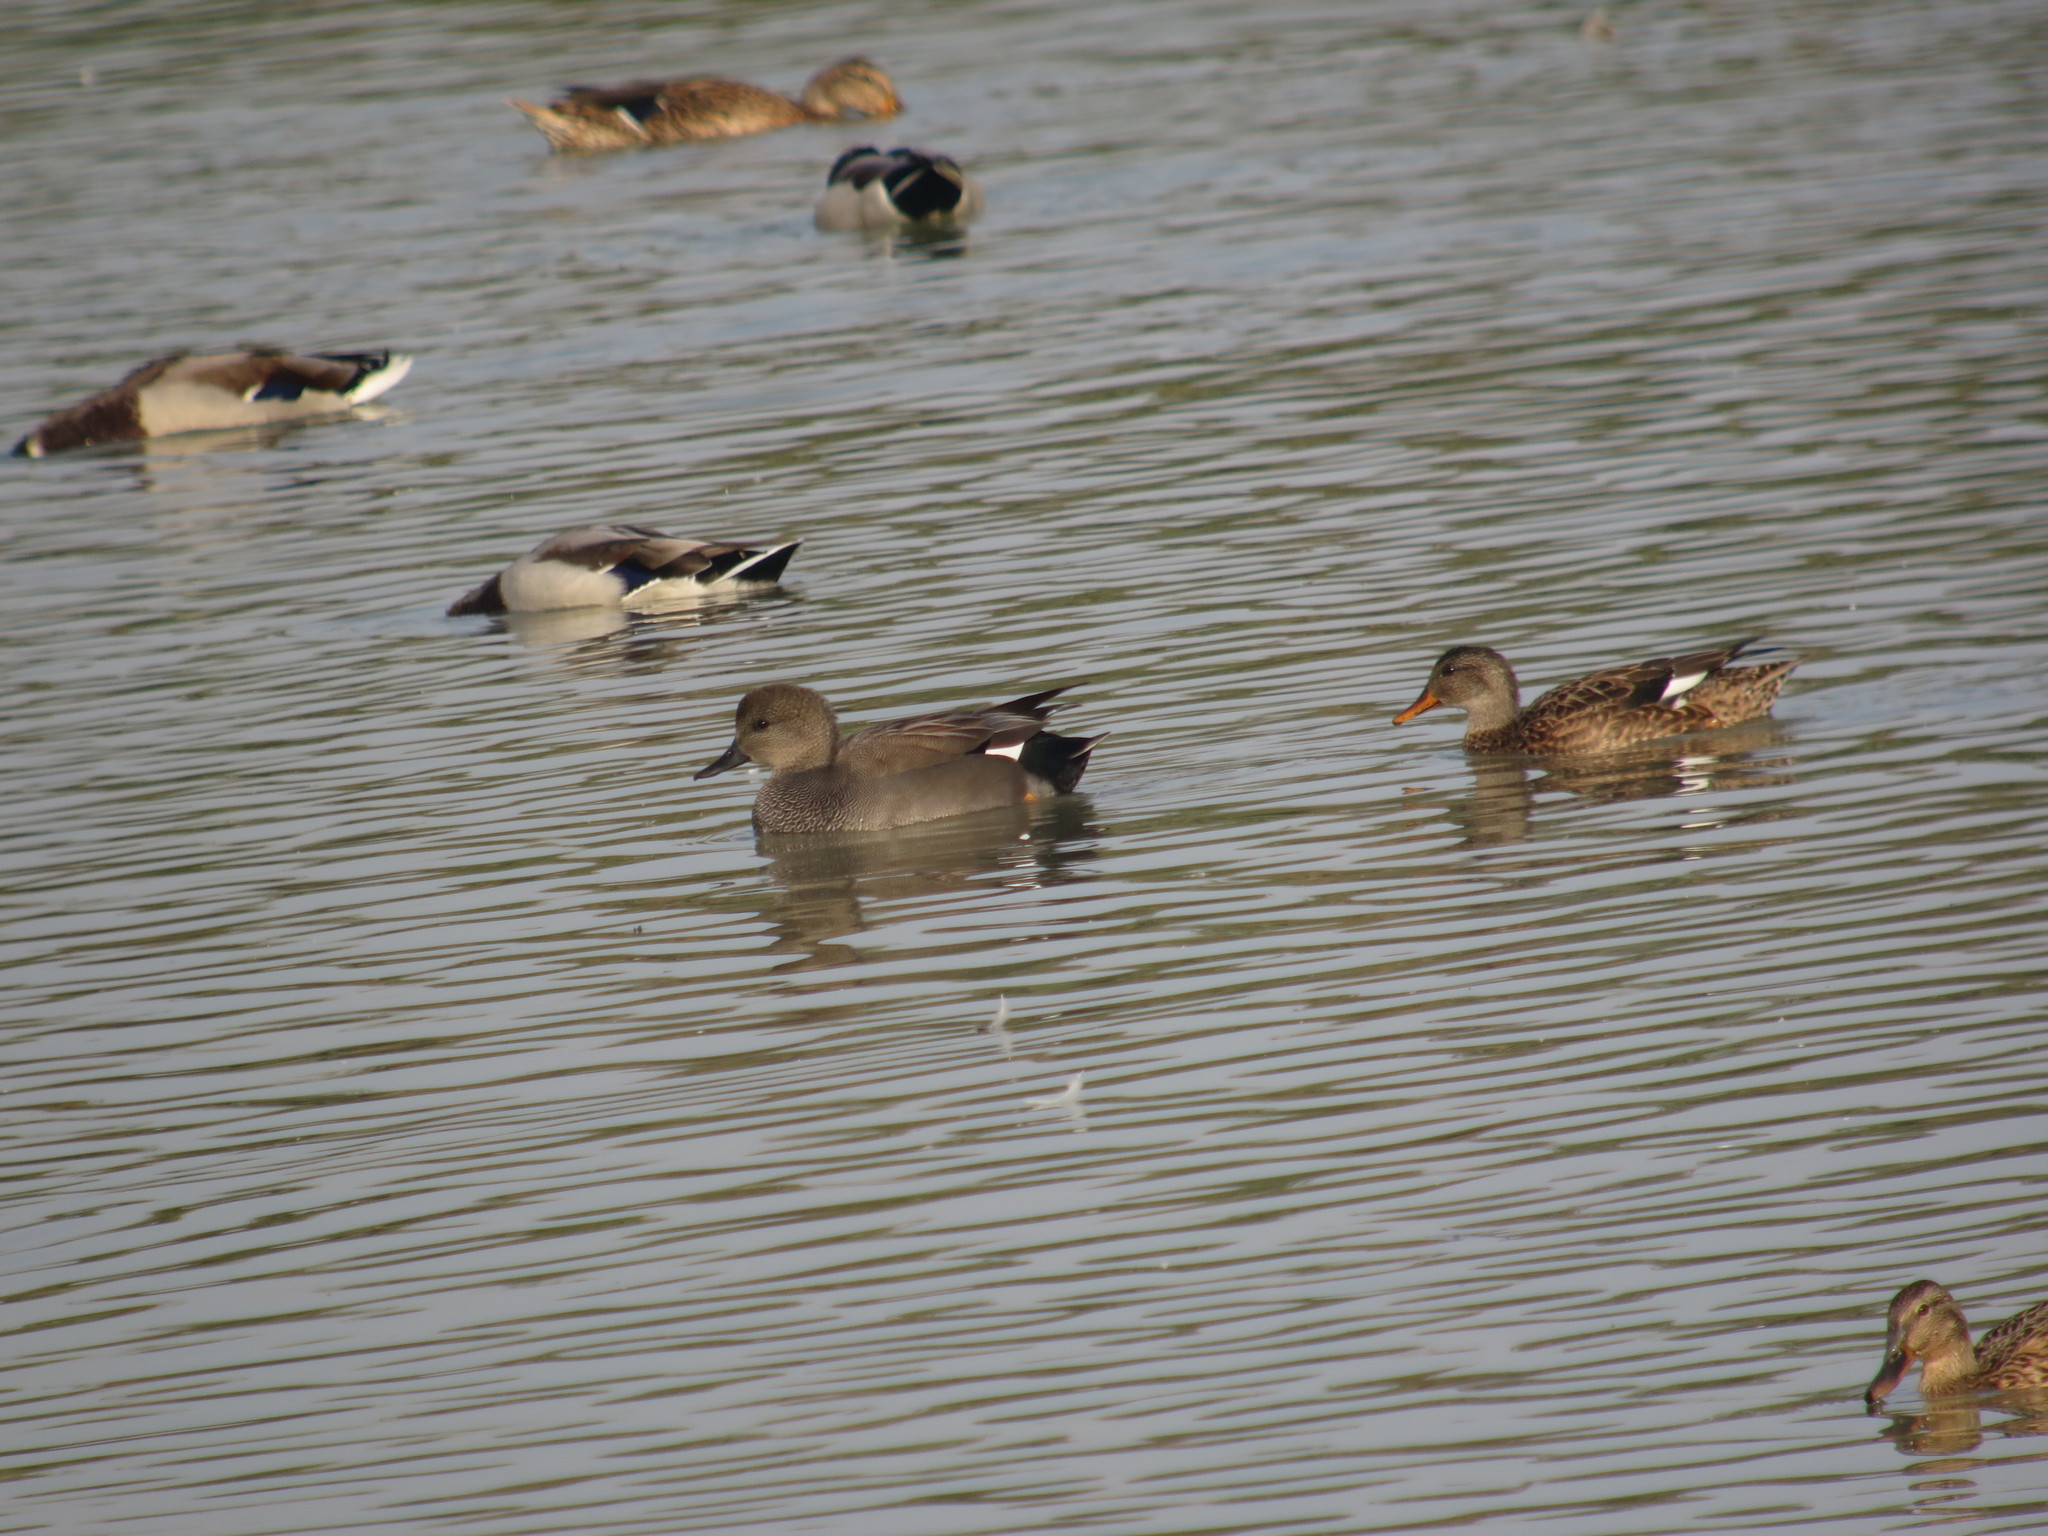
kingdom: Animalia
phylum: Chordata
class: Aves
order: Anseriformes
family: Anatidae
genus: Mareca
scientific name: Mareca strepera
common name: Gadwall
